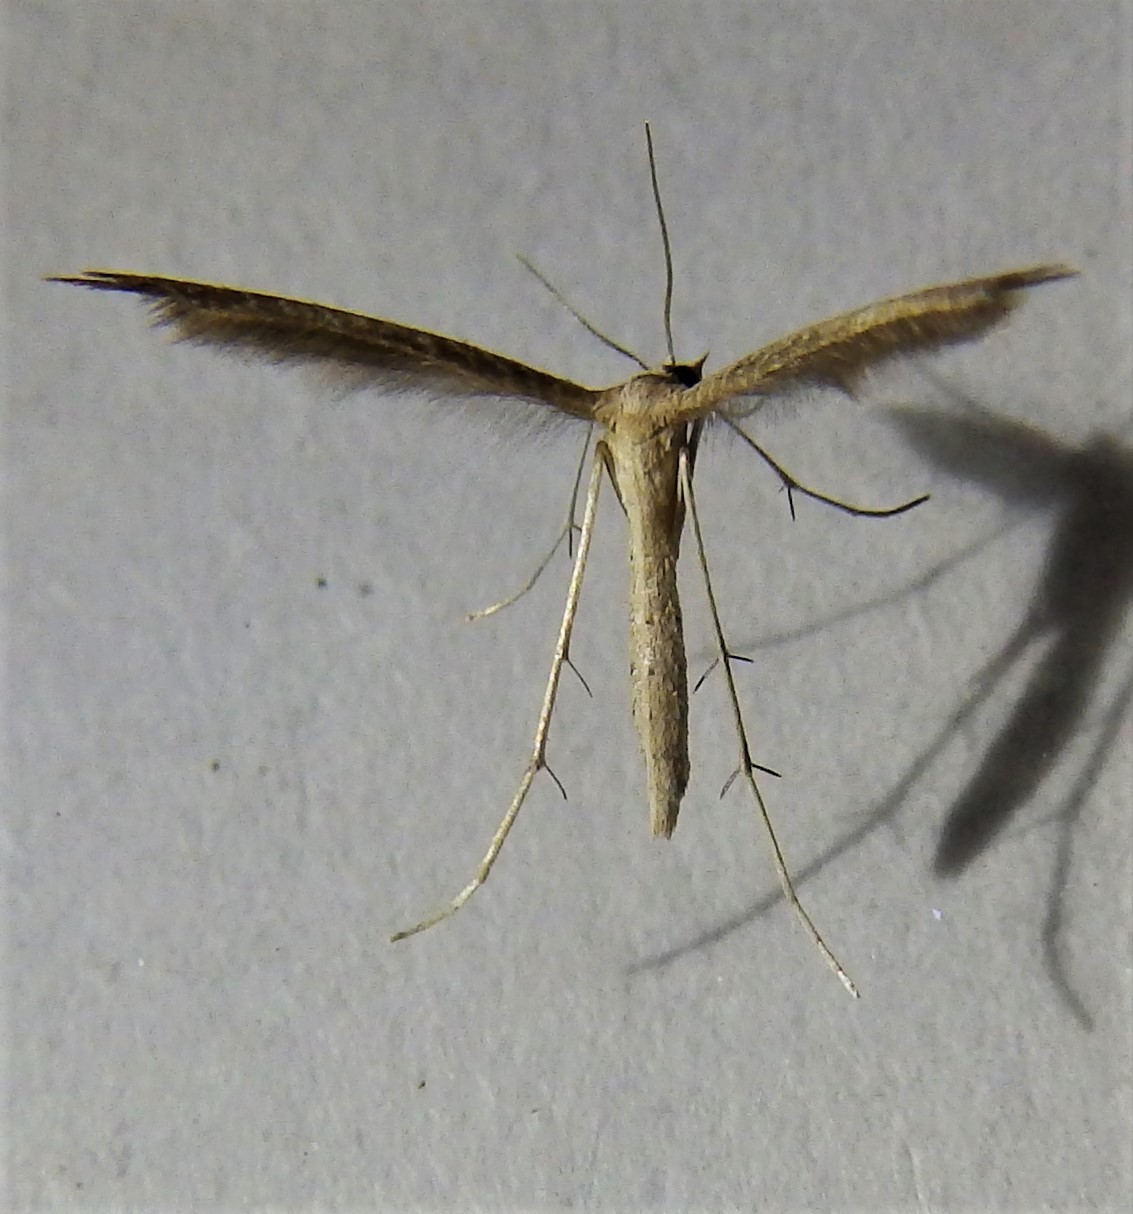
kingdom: Animalia
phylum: Arthropoda
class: Insecta
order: Lepidoptera
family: Pterophoridae
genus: Lioptilodes
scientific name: Lioptilodes albistriolatus
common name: Moth
